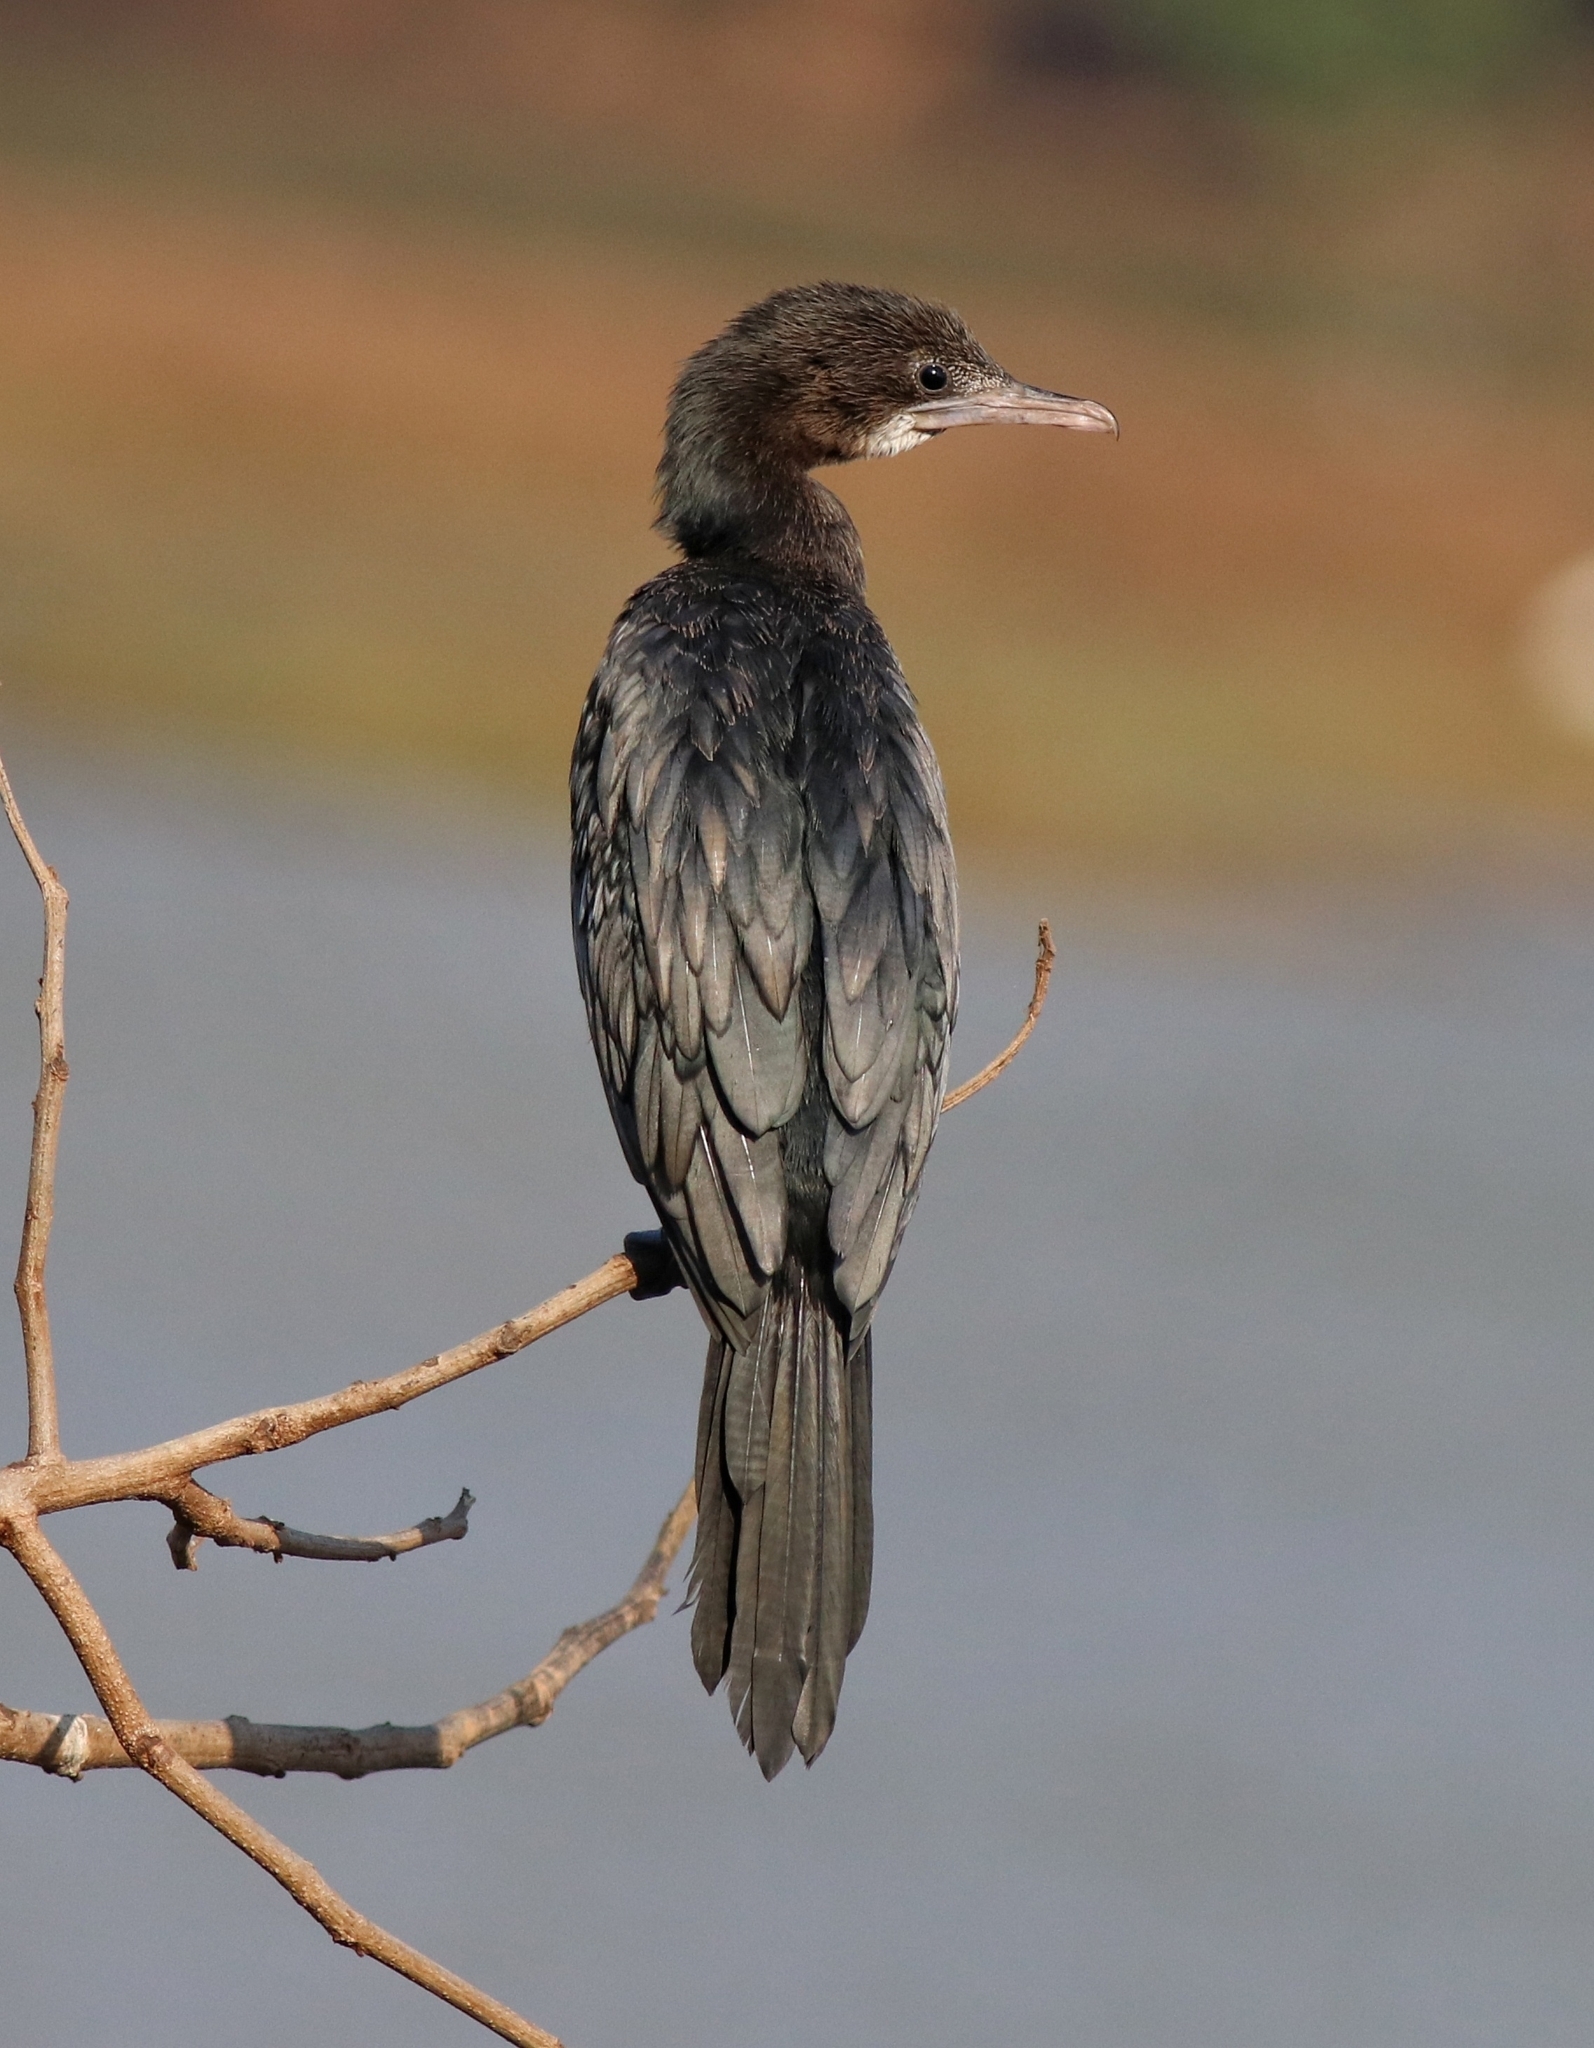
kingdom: Animalia
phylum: Chordata
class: Aves
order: Suliformes
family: Phalacrocoracidae
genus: Microcarbo
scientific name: Microcarbo niger
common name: Little cormorant
